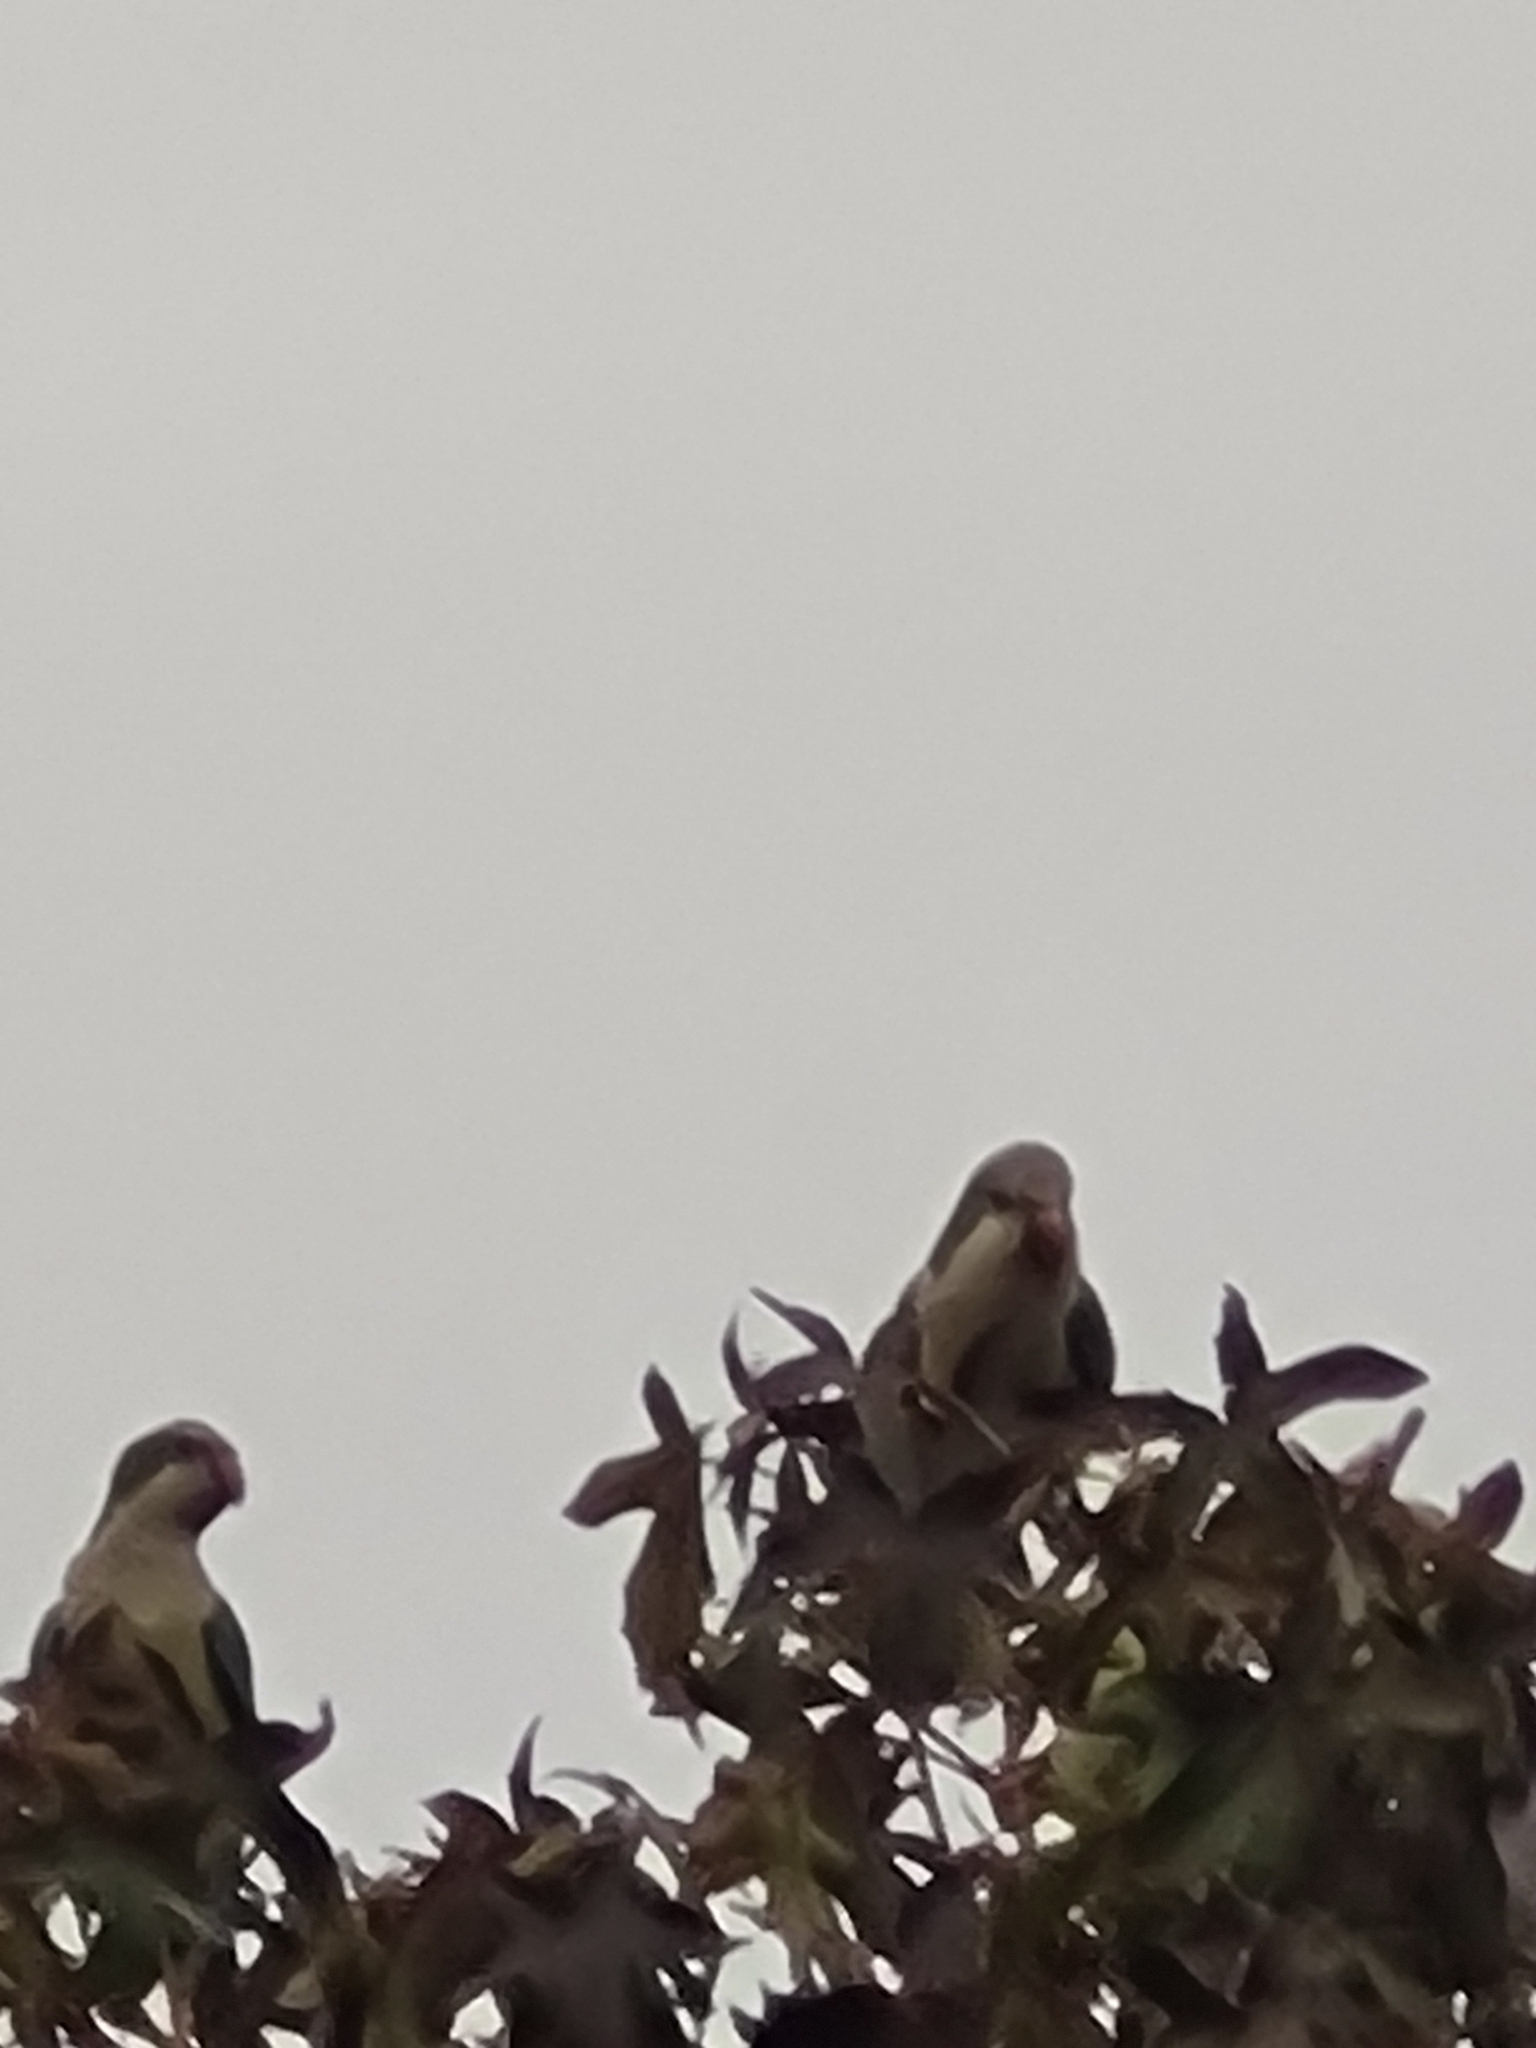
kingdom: Animalia
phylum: Chordata
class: Aves
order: Psittaciformes
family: Psittacidae
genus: Myiopsitta
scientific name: Myiopsitta monachus
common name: Monk parakeet
